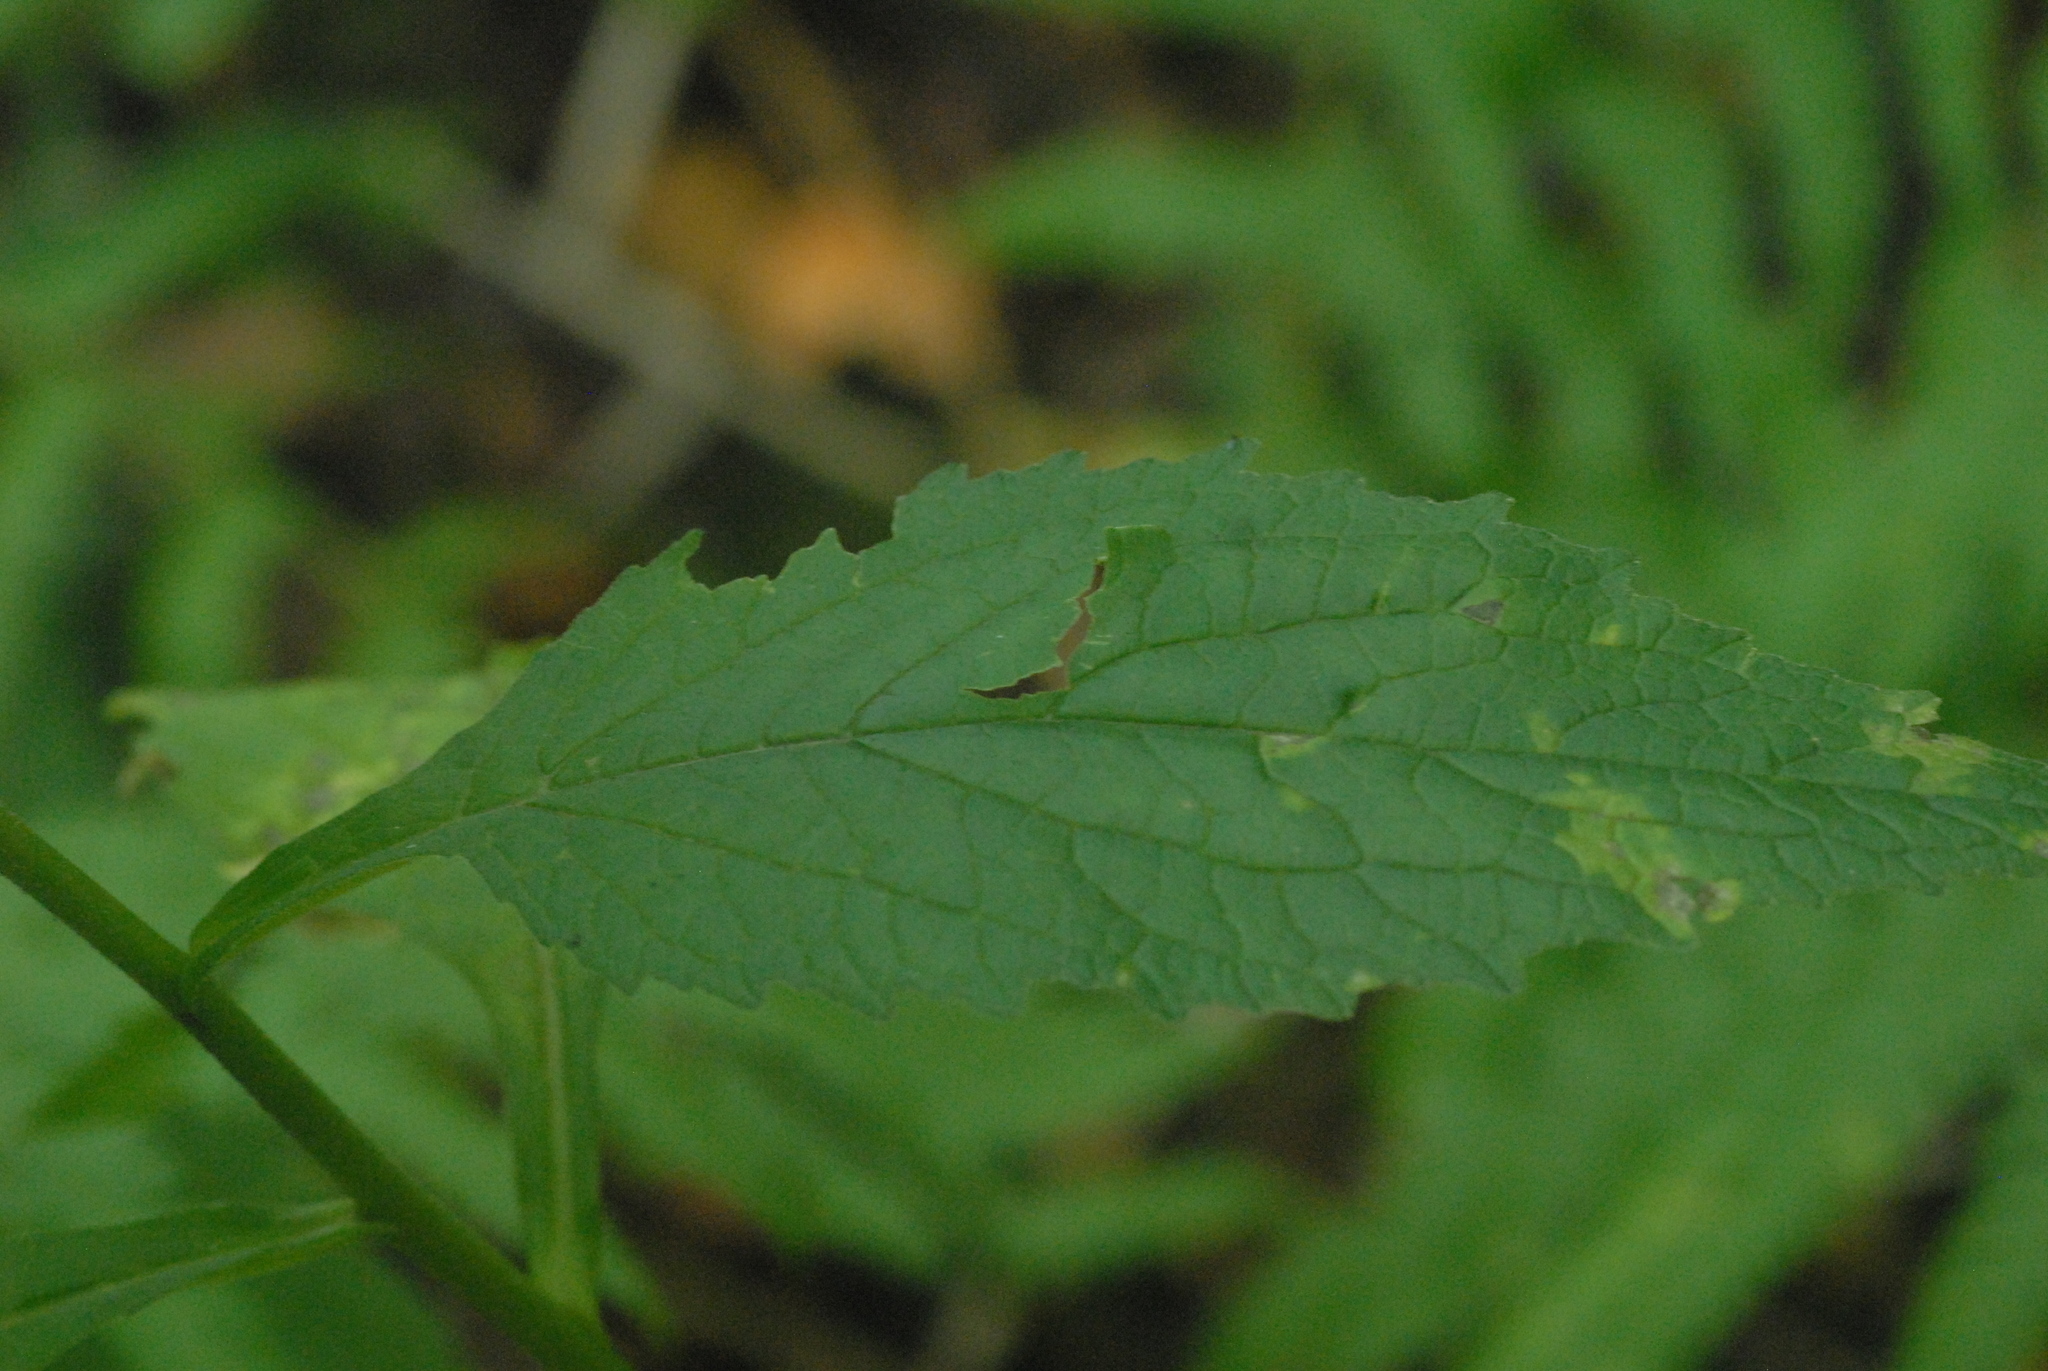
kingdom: Plantae
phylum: Tracheophyta
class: Magnoliopsida
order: Asterales
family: Campanulaceae
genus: Campanula
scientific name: Campanula latifolia
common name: Giant bellflower
